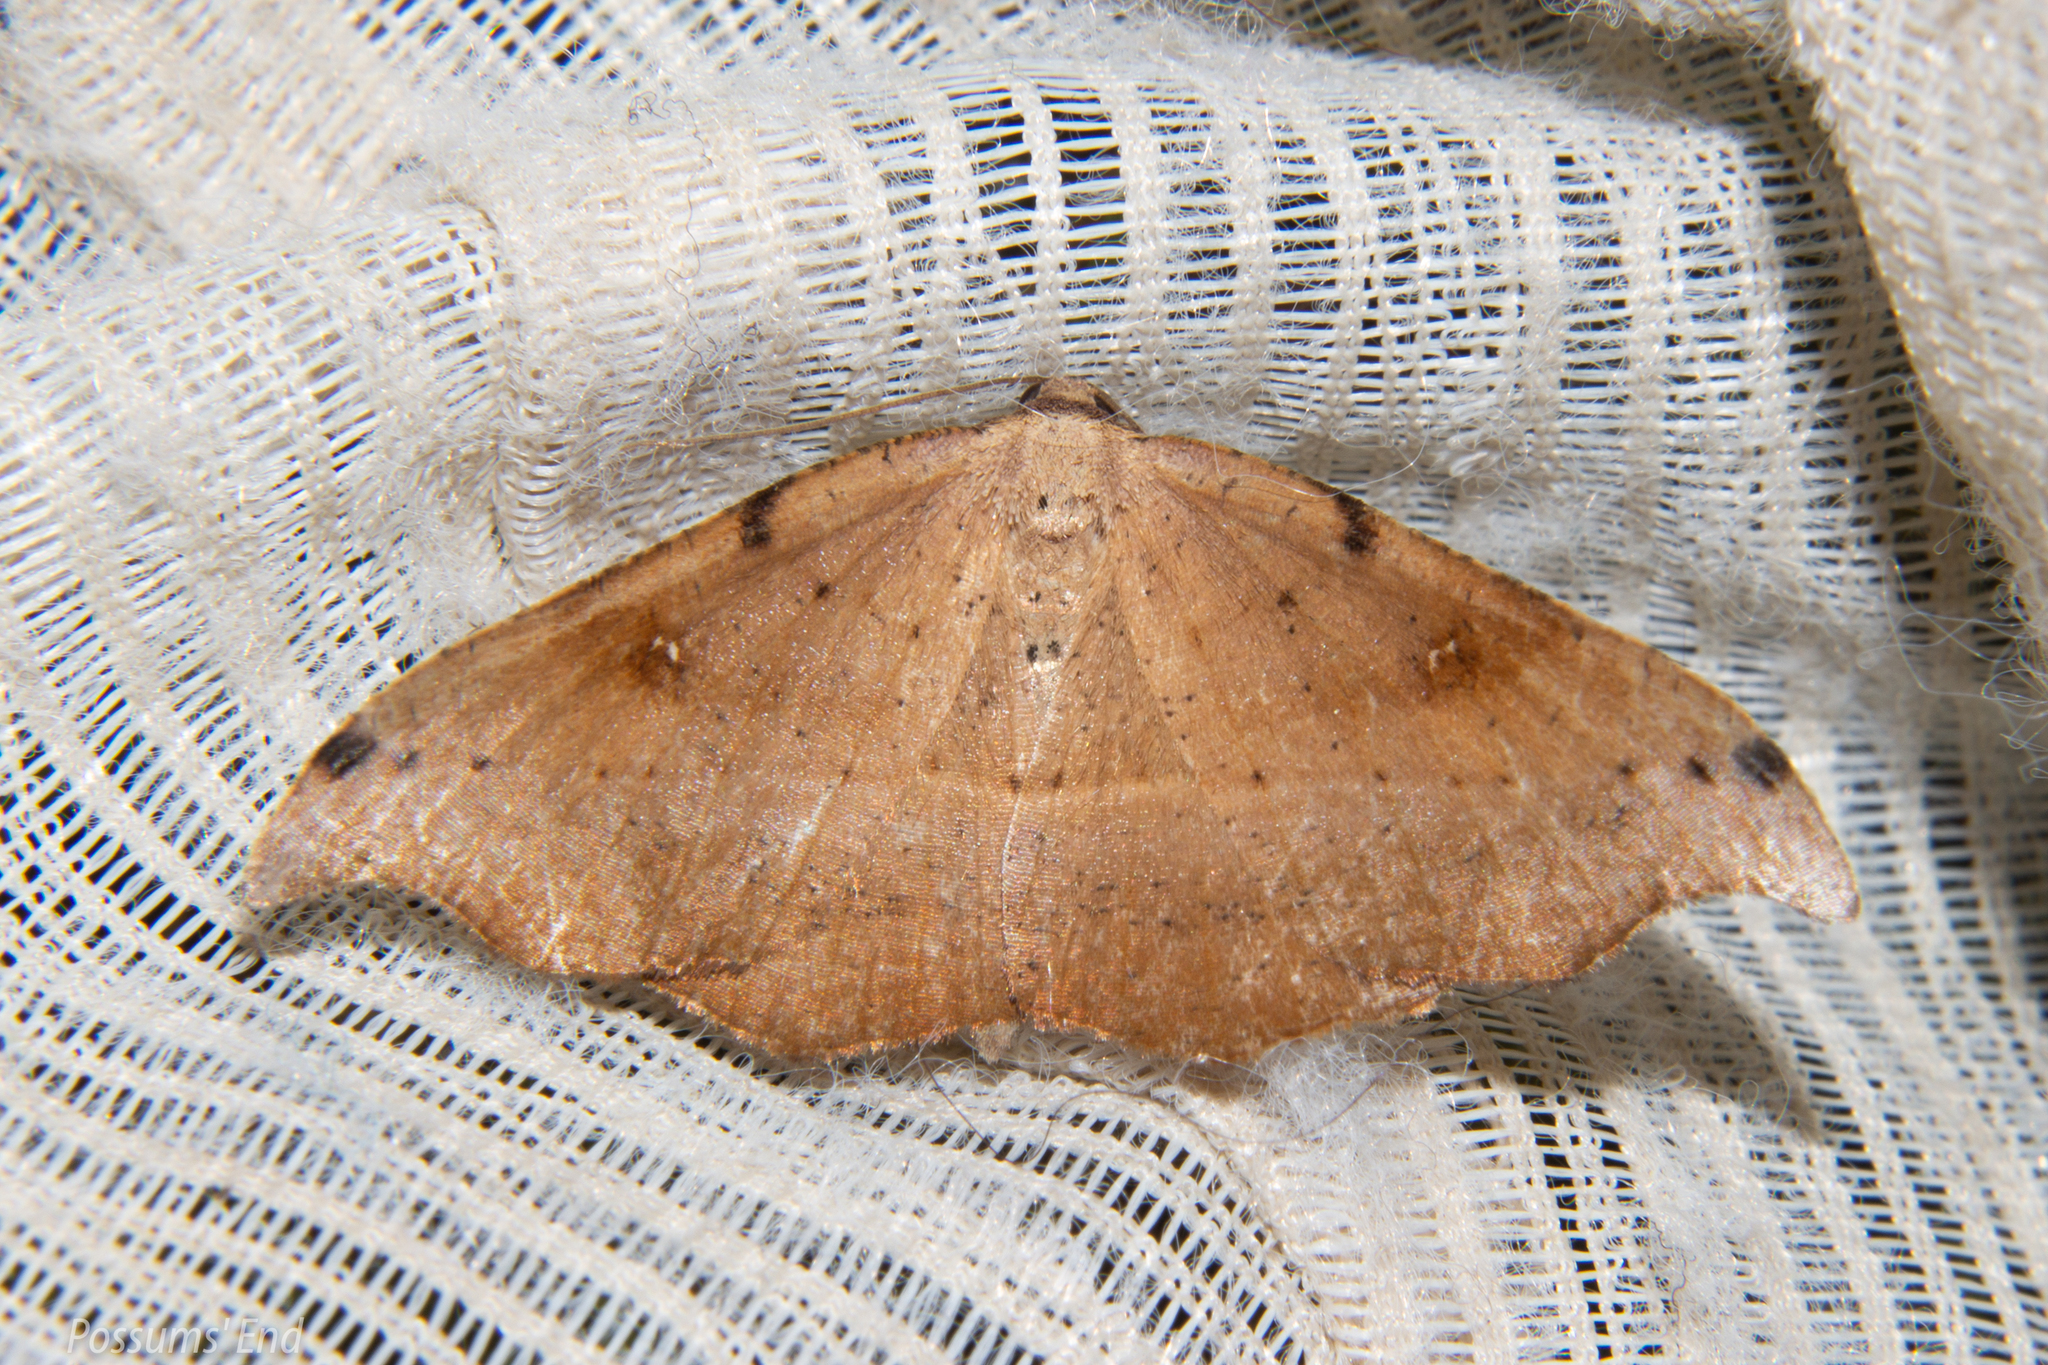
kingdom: Animalia
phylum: Arthropoda
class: Insecta
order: Lepidoptera
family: Geometridae
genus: Sarisa
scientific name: Sarisa muriferata
